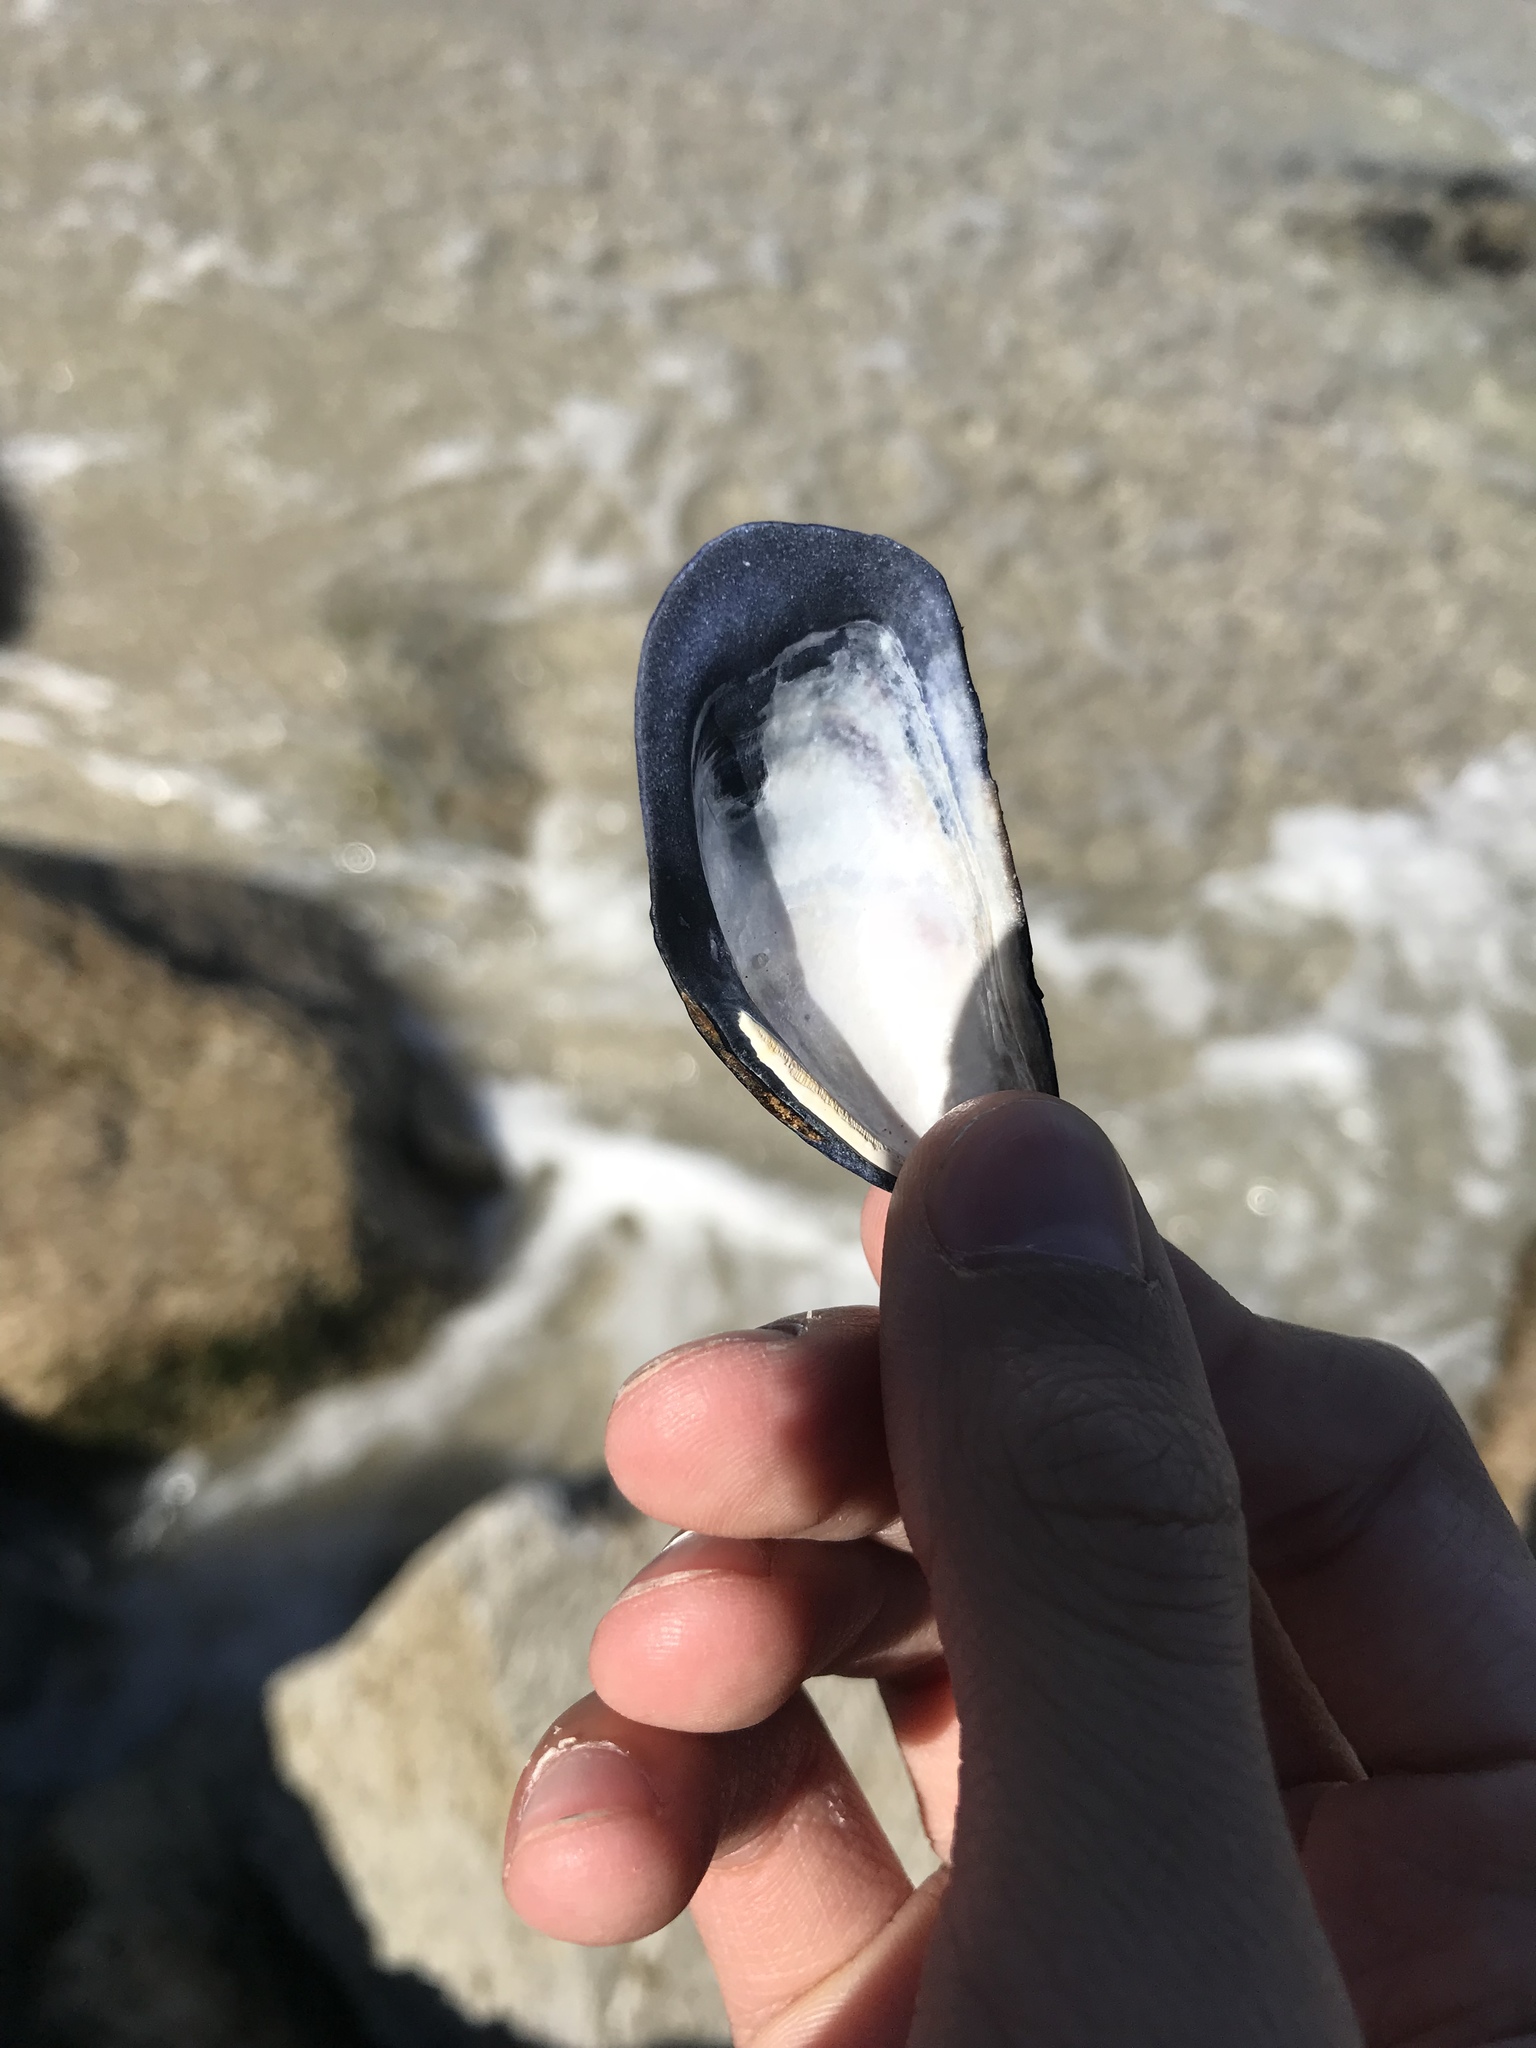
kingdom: Animalia
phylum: Mollusca
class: Bivalvia
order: Mytilida
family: Mytilidae
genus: Mytilus
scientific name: Mytilus californianus
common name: California mussel
